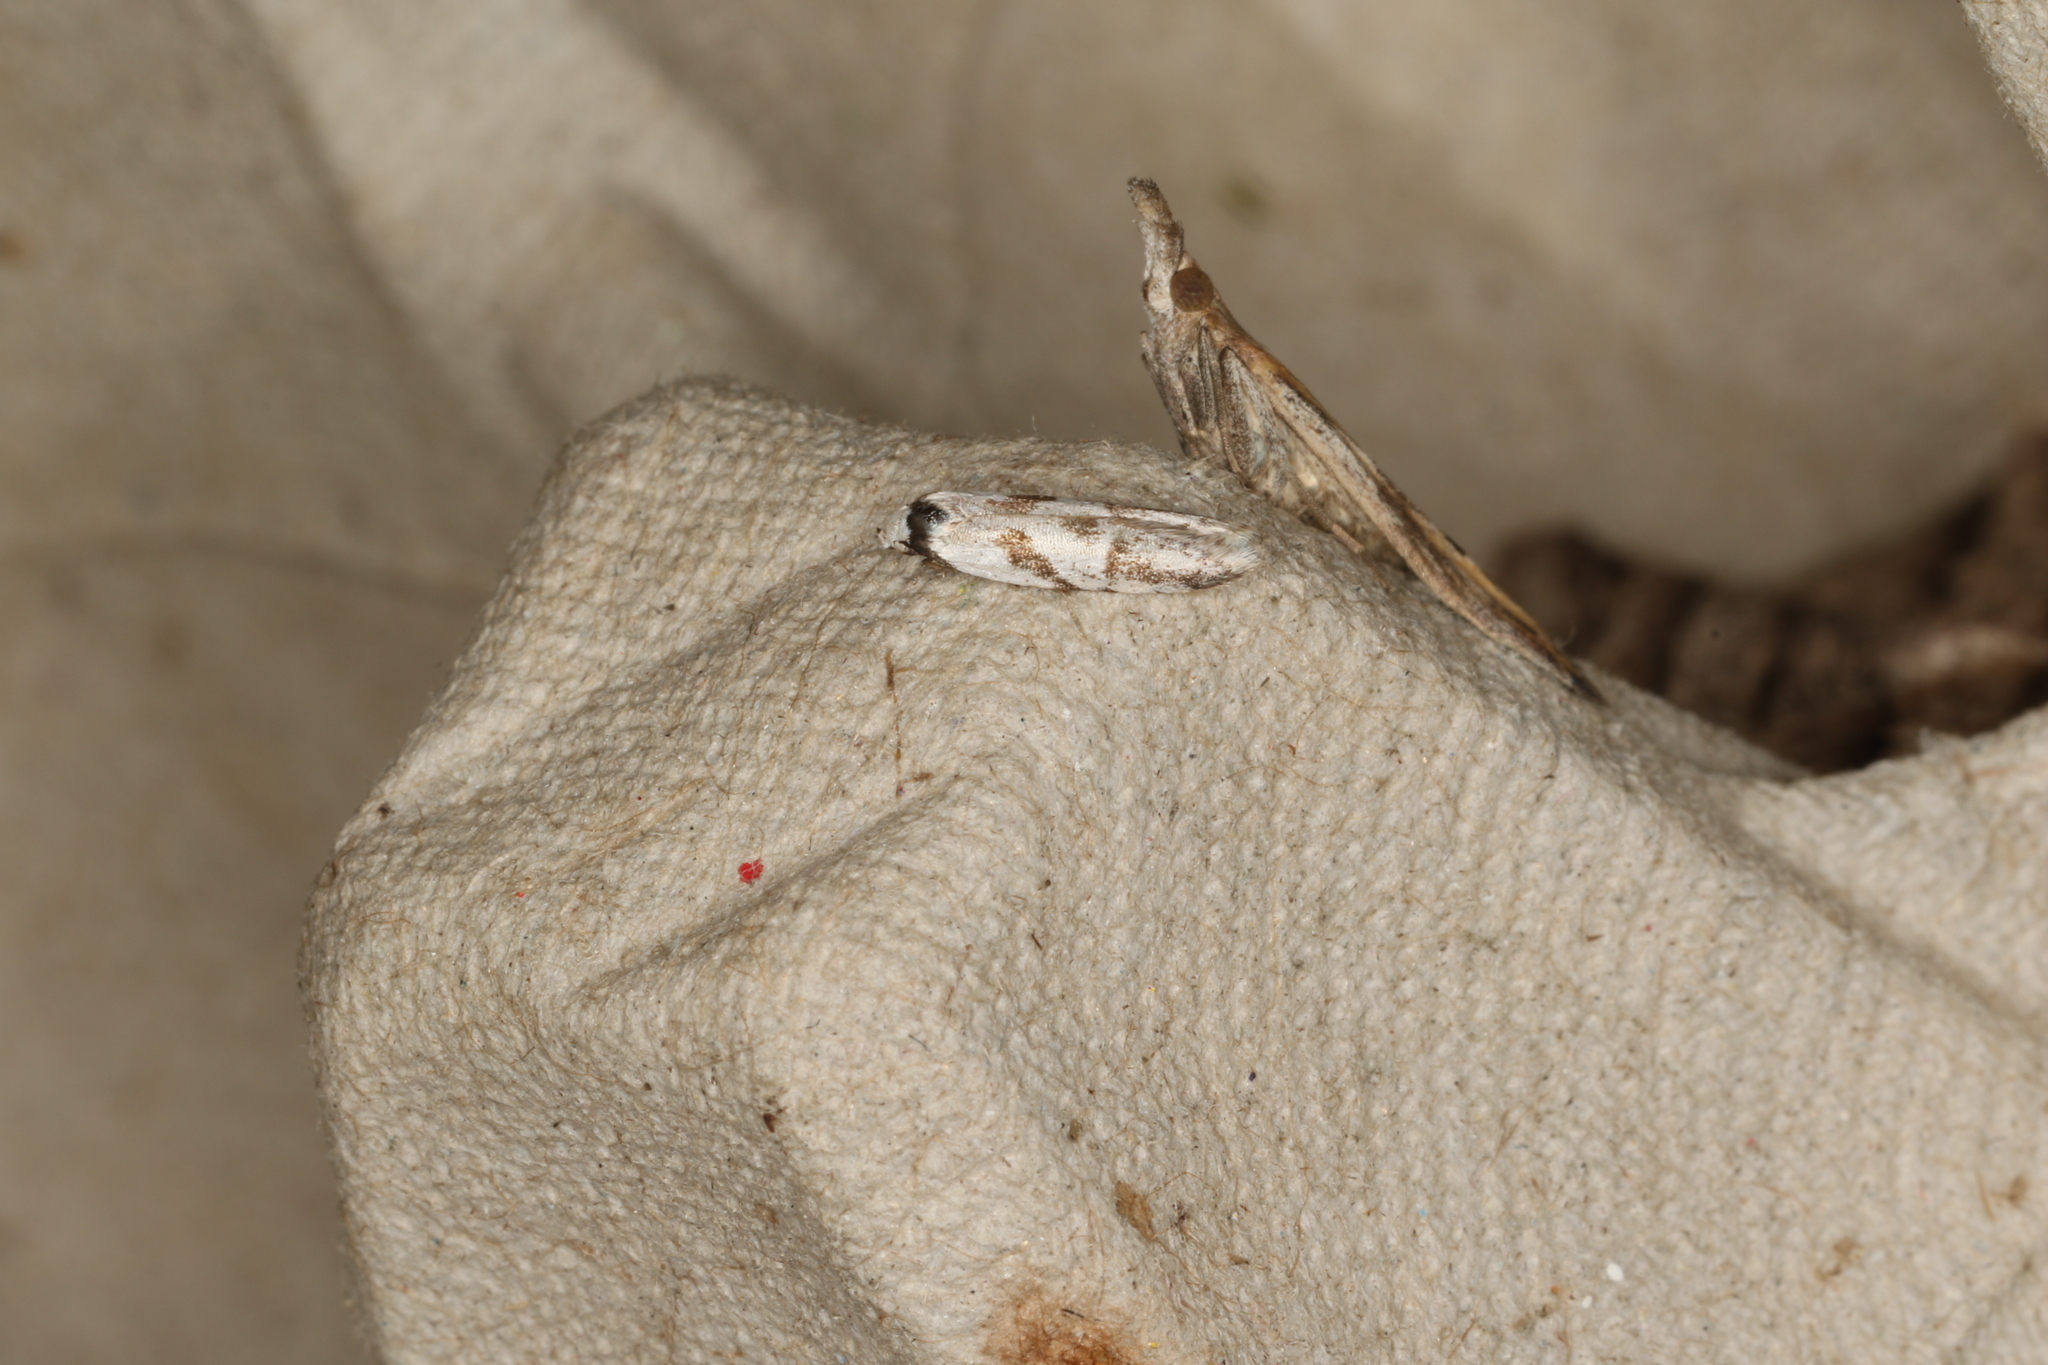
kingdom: Animalia
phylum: Arthropoda
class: Insecta
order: Lepidoptera
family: Oecophoridae
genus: Oxythecta
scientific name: Oxythecta acceptella
